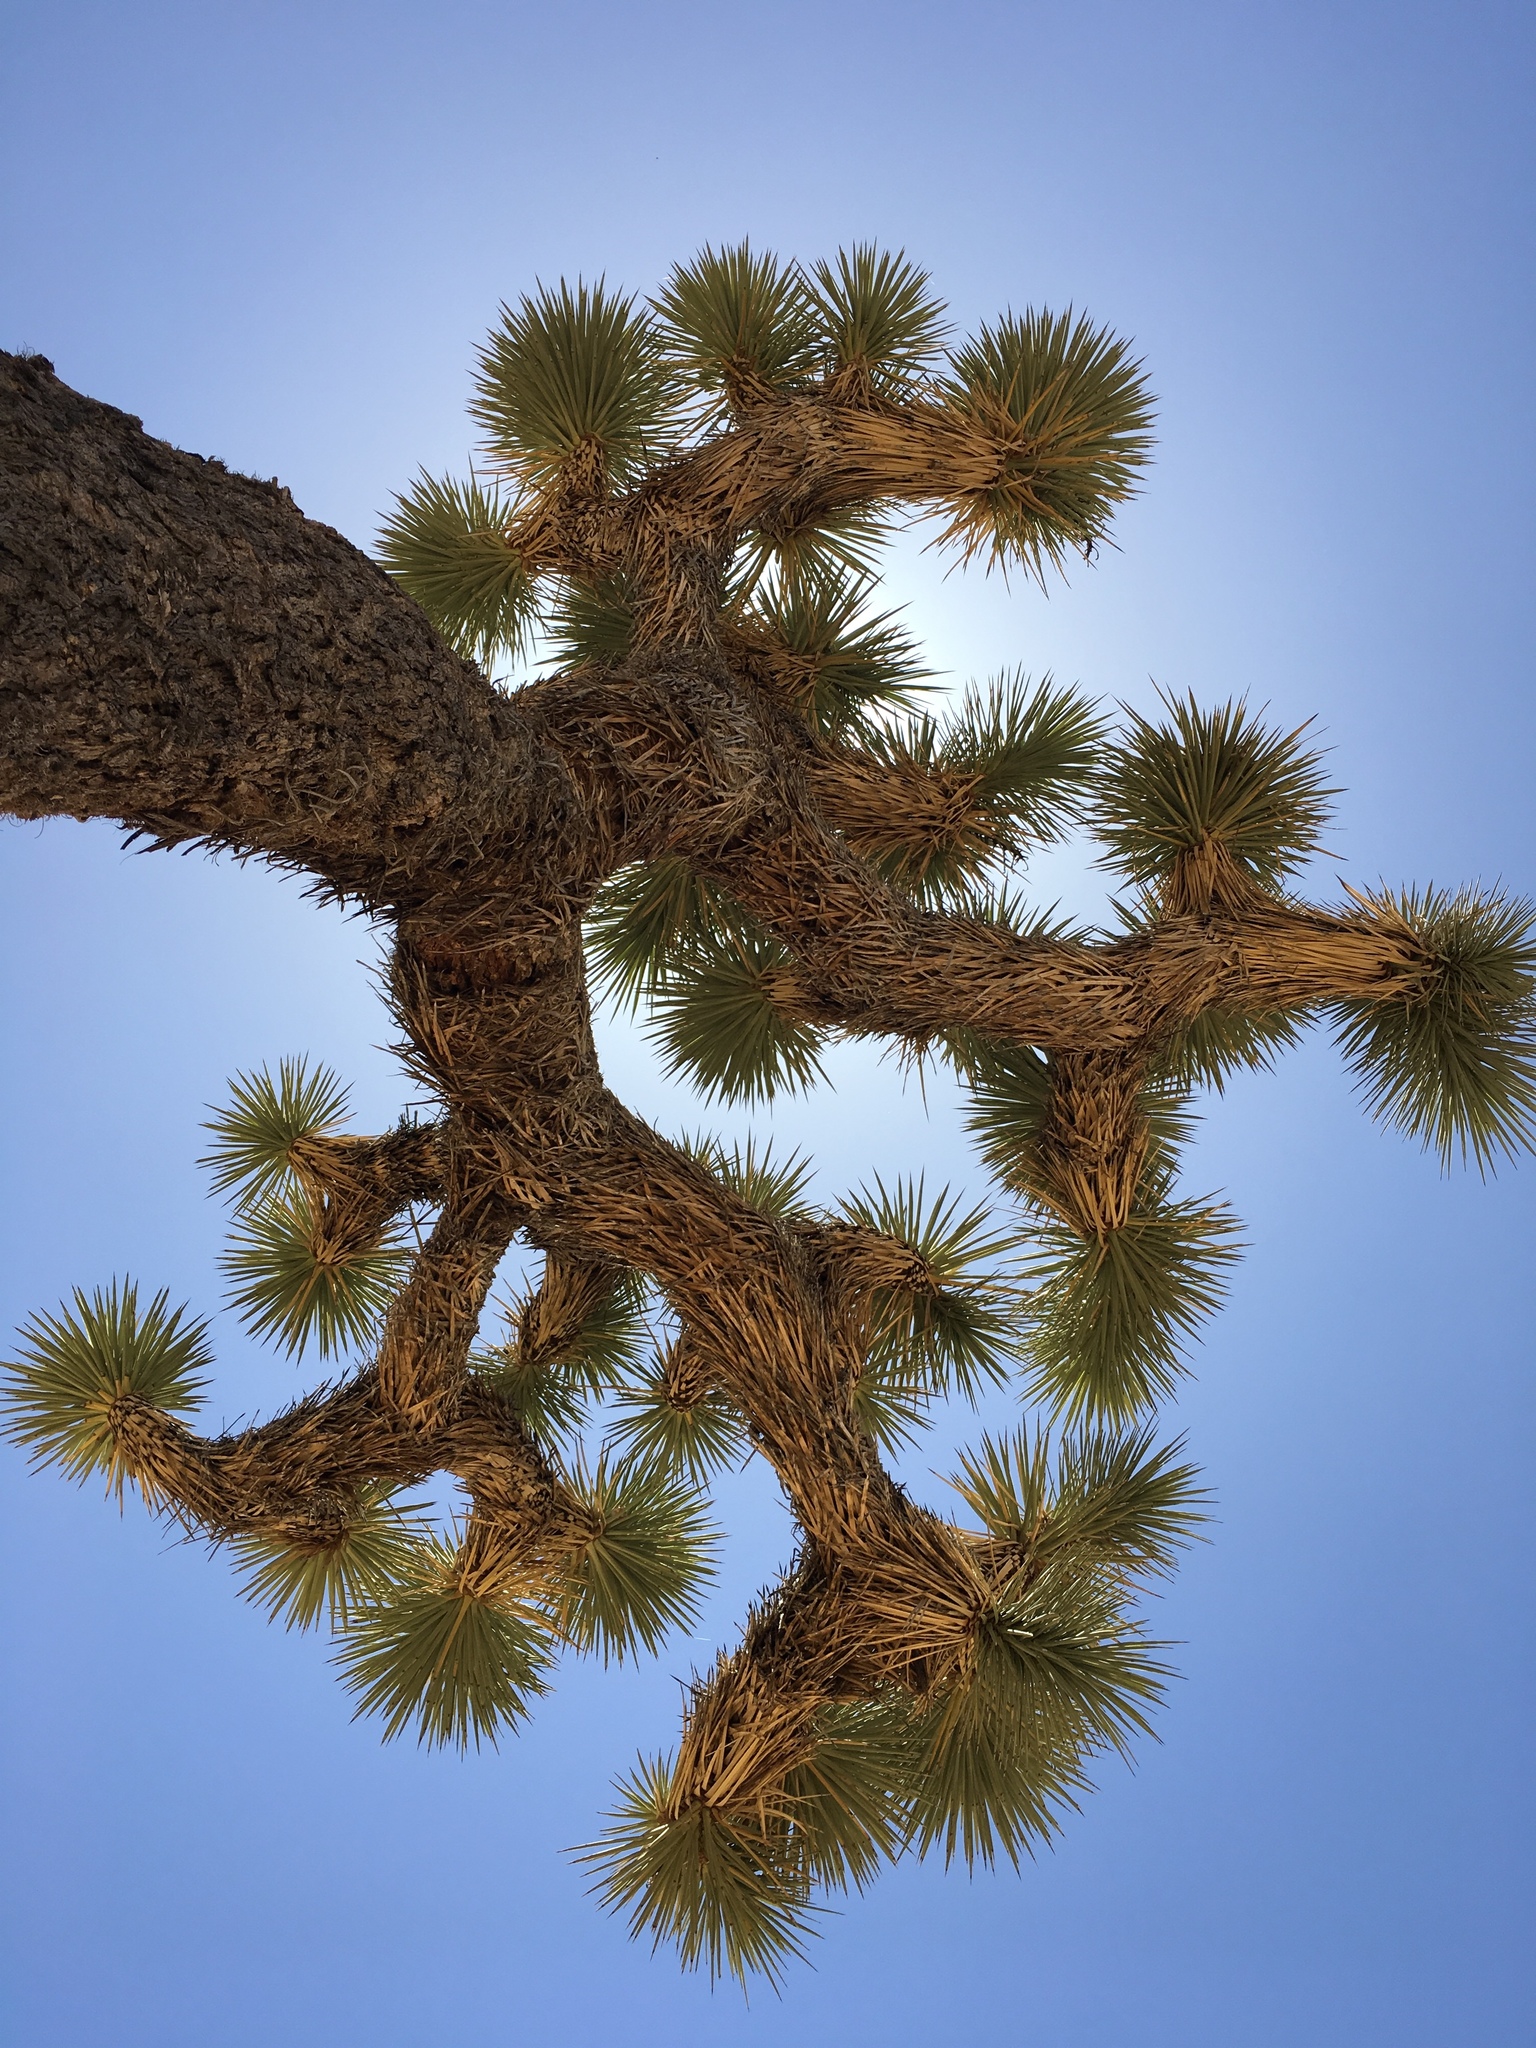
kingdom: Plantae
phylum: Tracheophyta
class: Liliopsida
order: Asparagales
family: Asparagaceae
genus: Yucca
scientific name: Yucca brevifolia
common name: Joshua tree
